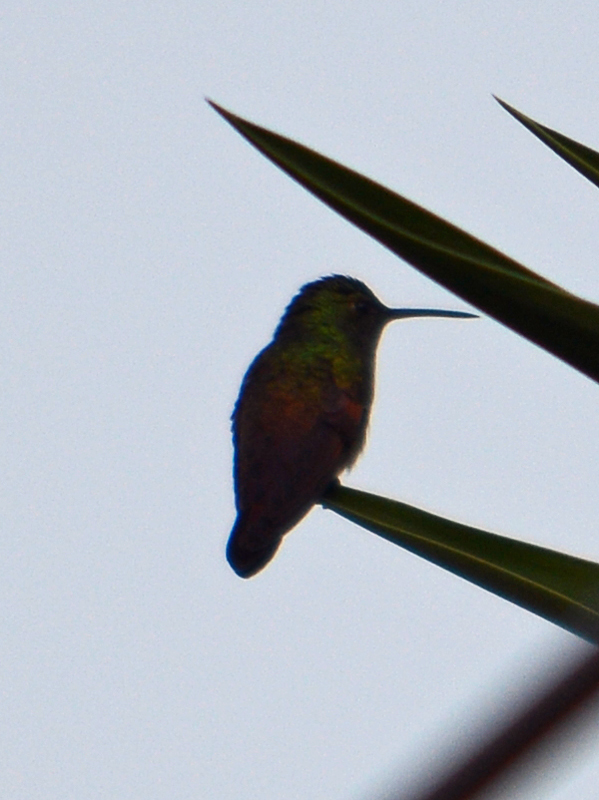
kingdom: Animalia
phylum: Chordata
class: Aves
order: Apodiformes
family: Trochilidae
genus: Saucerottia
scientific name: Saucerottia beryllina
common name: Berylline hummingbird
